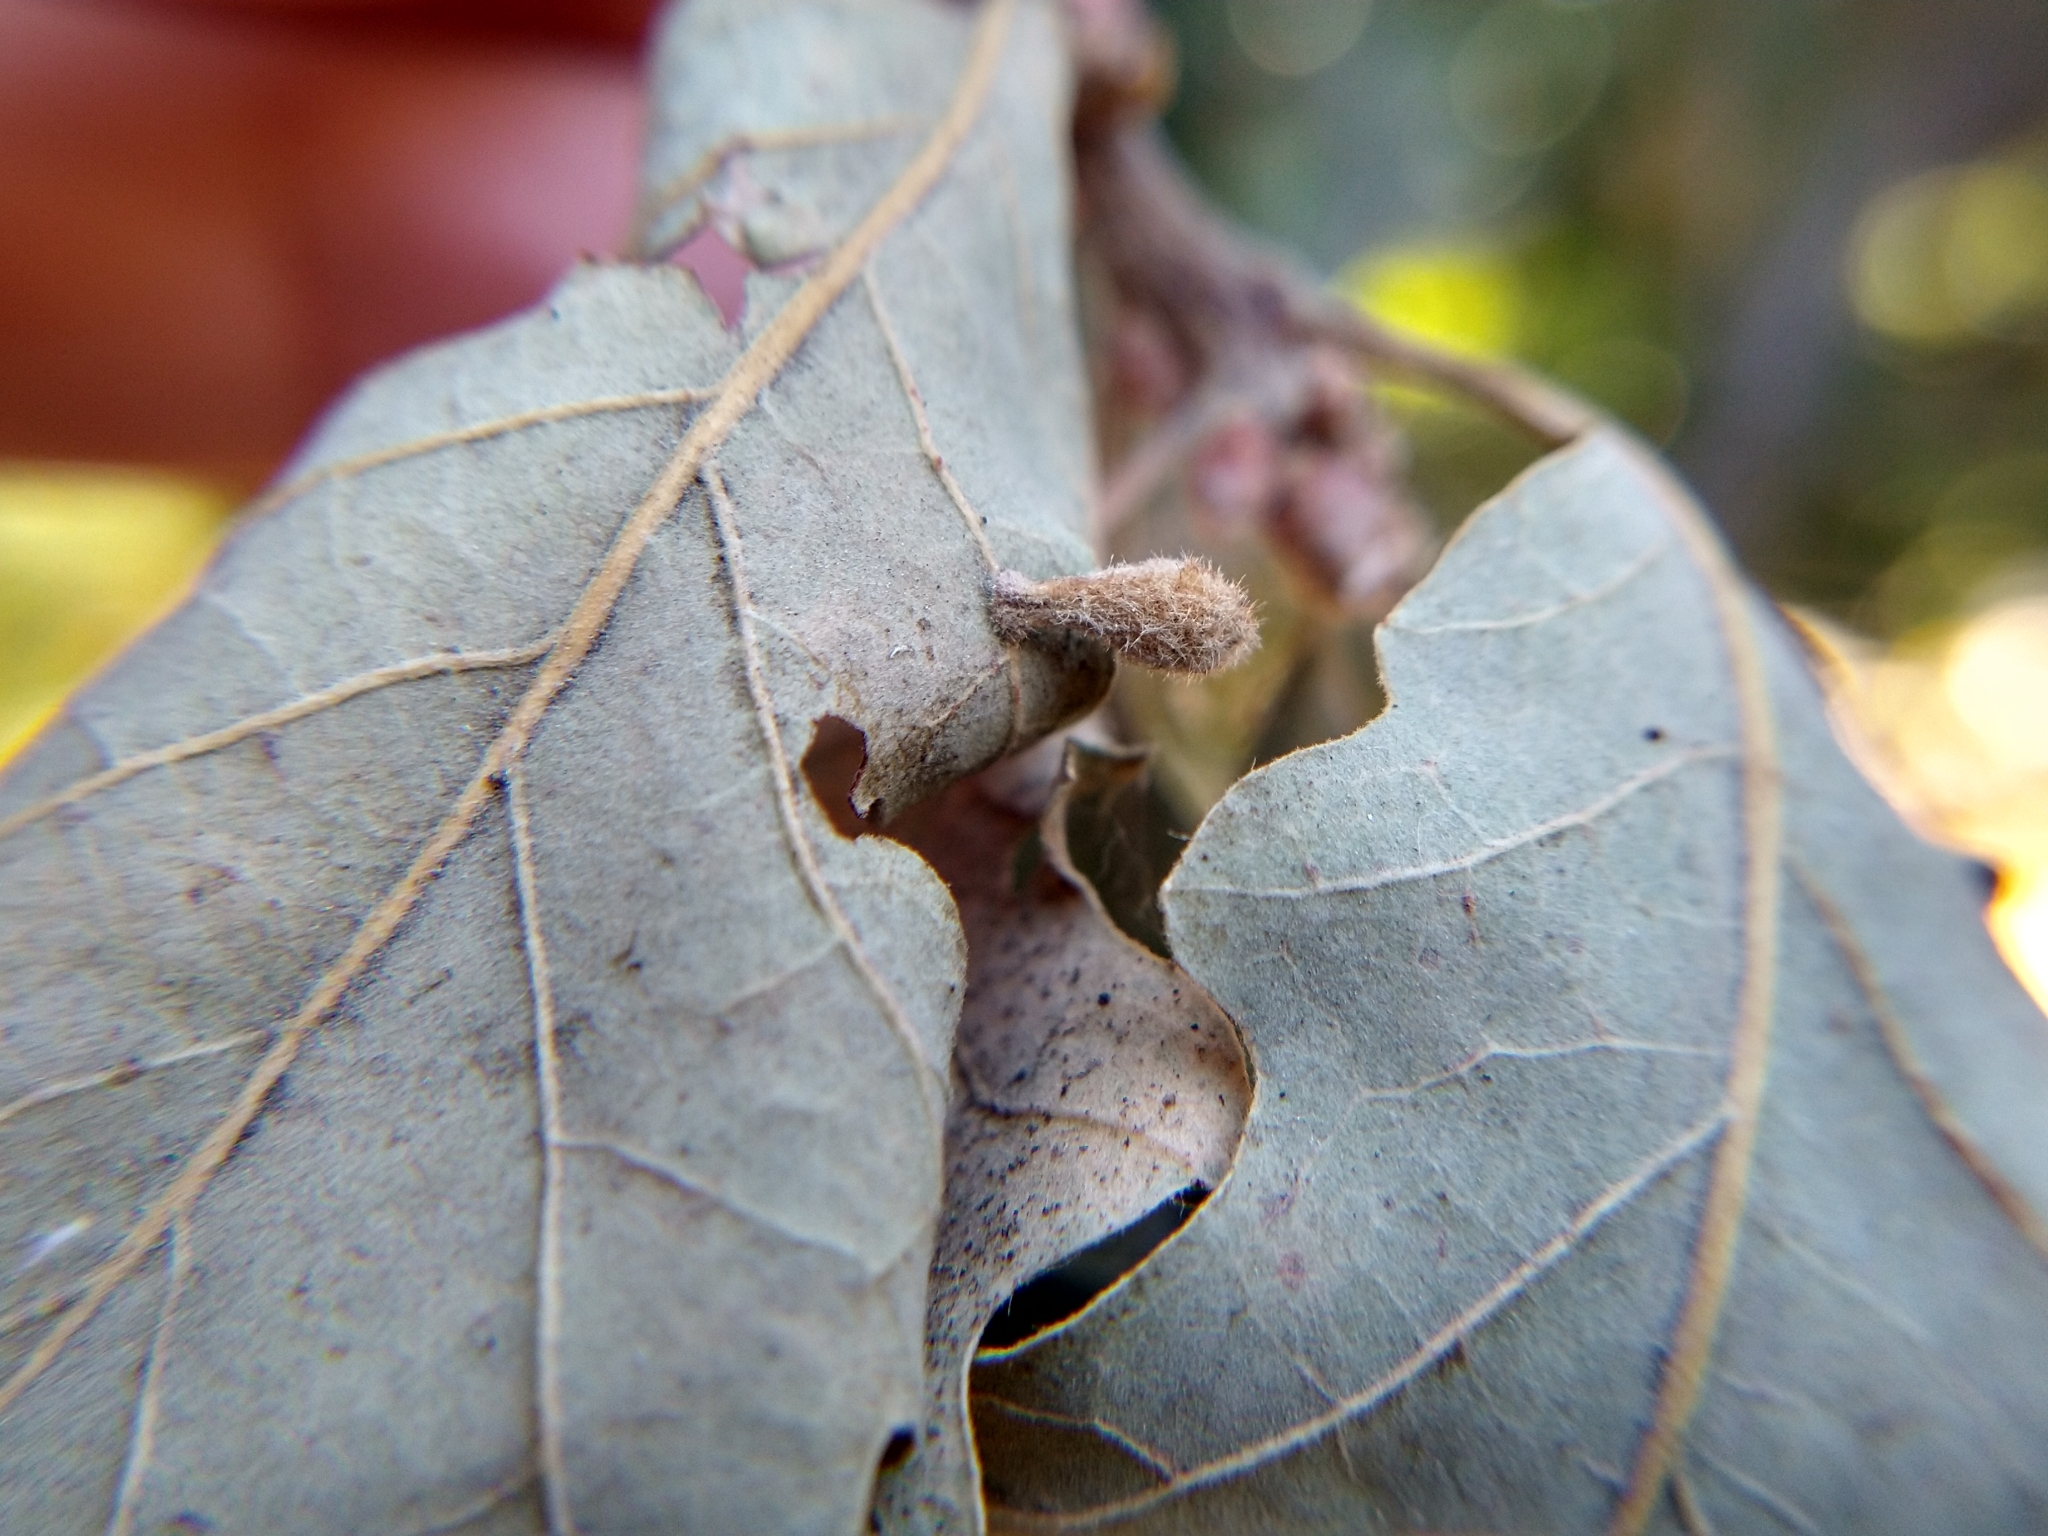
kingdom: Animalia
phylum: Arthropoda
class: Insecta
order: Hymenoptera
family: Cynipidae
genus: Atrusca
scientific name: Atrusca
